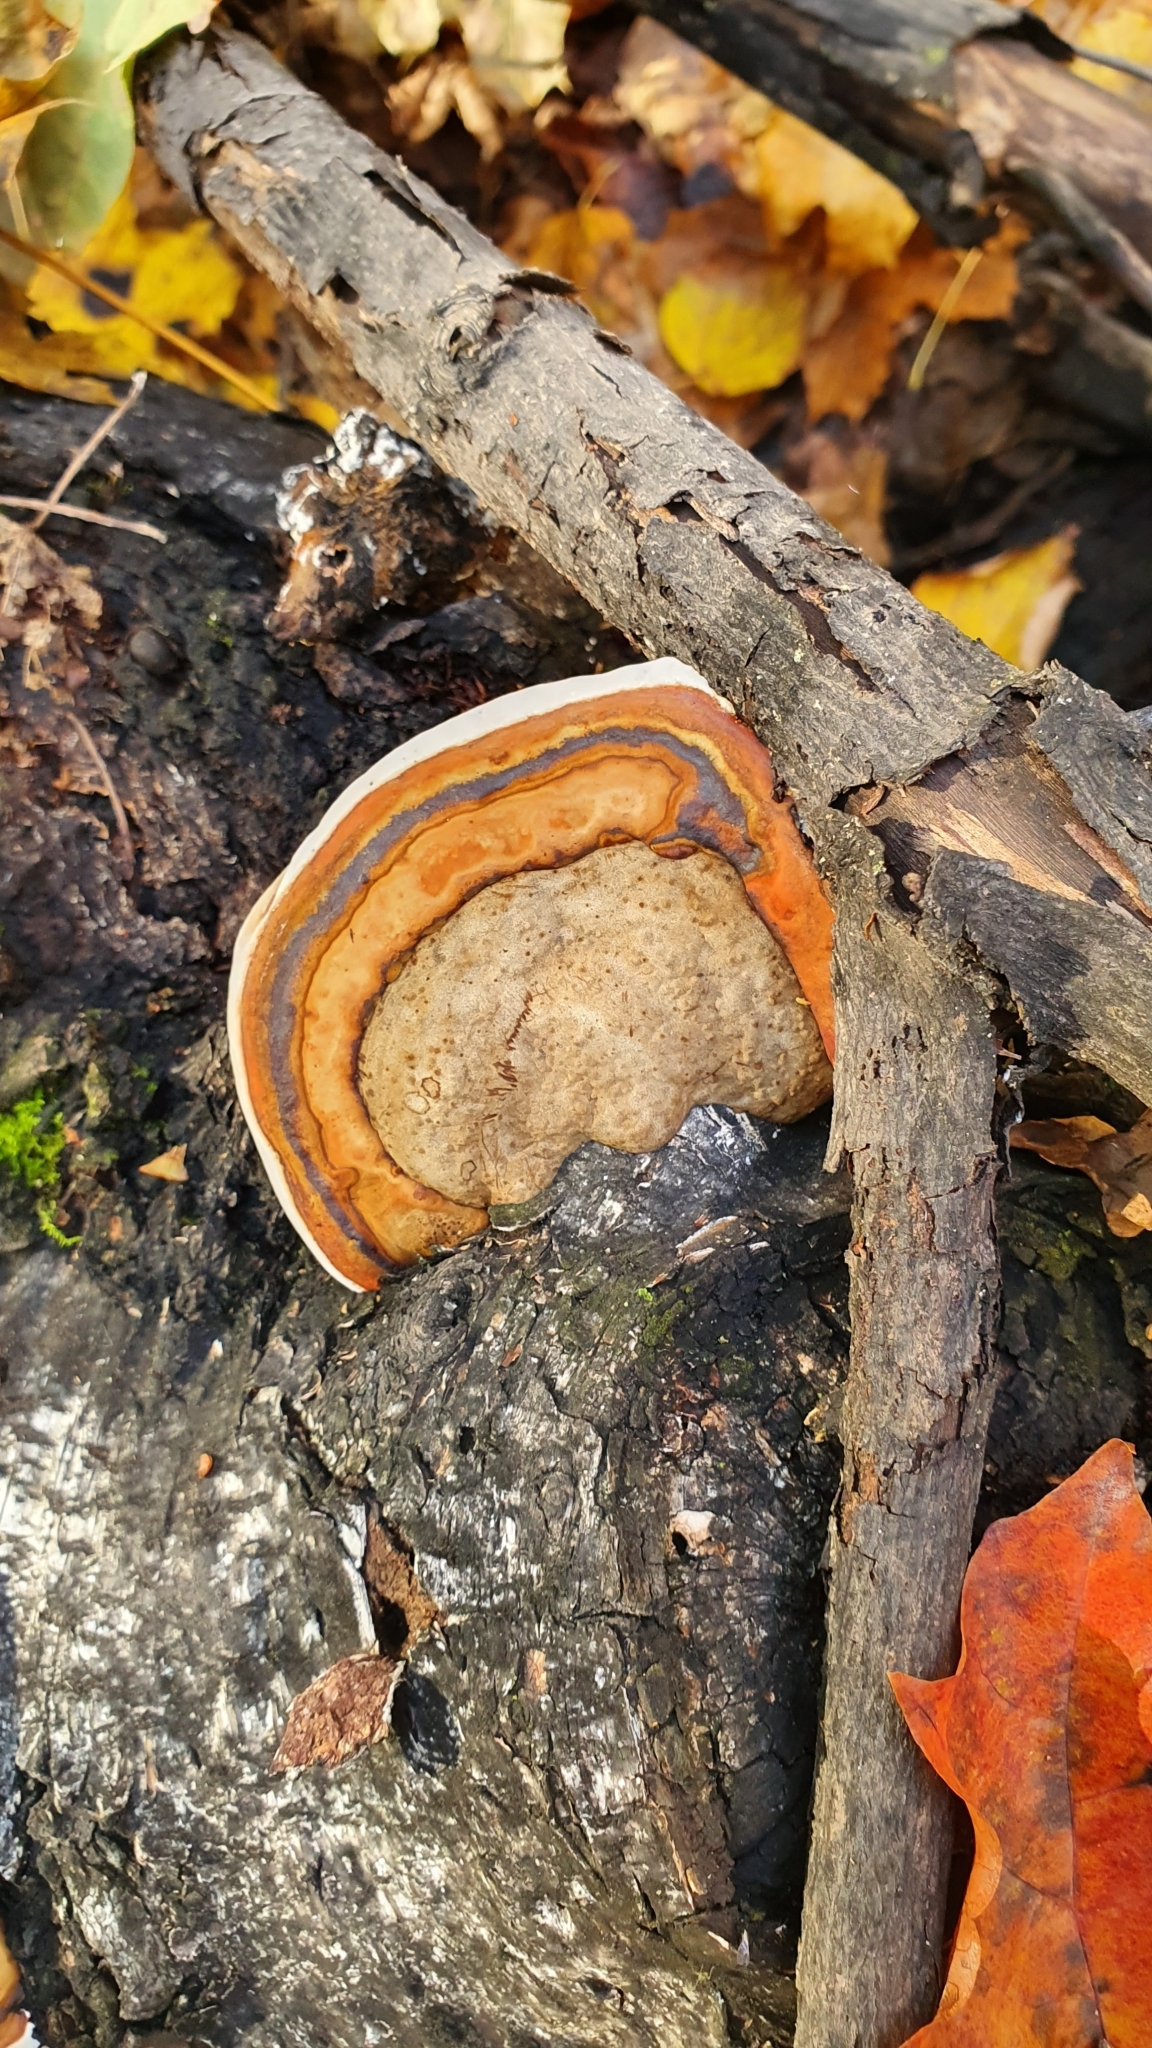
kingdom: Fungi
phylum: Basidiomycota
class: Agaricomycetes
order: Polyporales
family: Fomitopsidaceae
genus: Fomitopsis
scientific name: Fomitopsis pinicola
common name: Red-belted bracket
